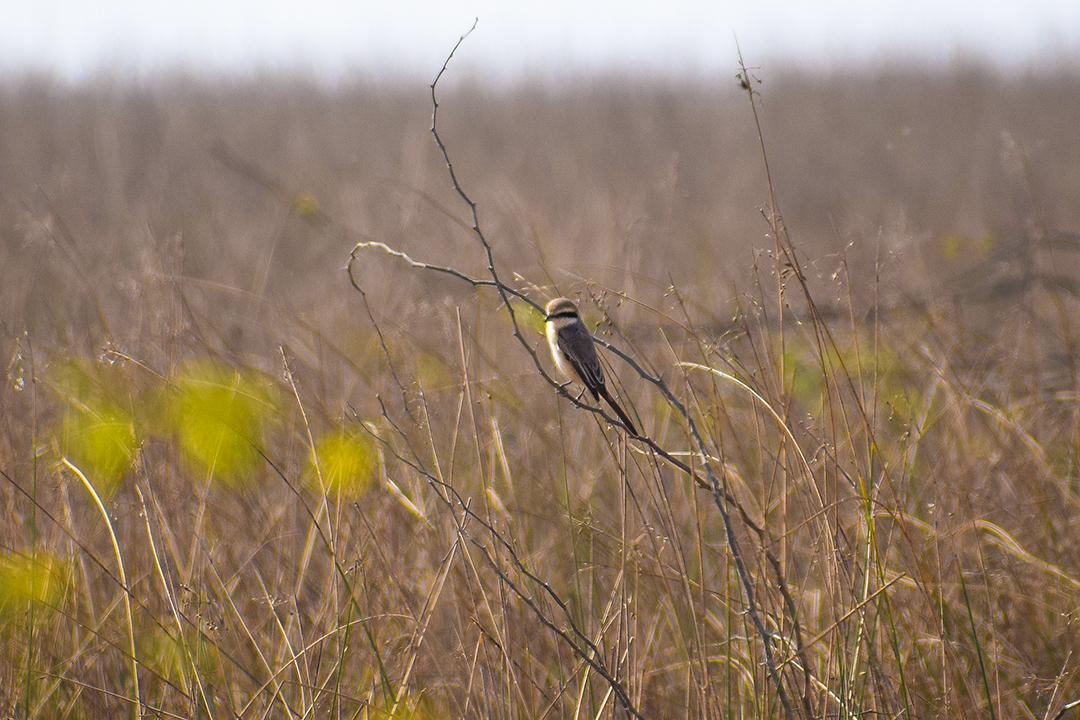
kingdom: Animalia
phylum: Chordata
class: Aves
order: Passeriformes
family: Laniidae
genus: Lanius
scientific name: Lanius phoenicuroides
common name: Red-tailed shrike
